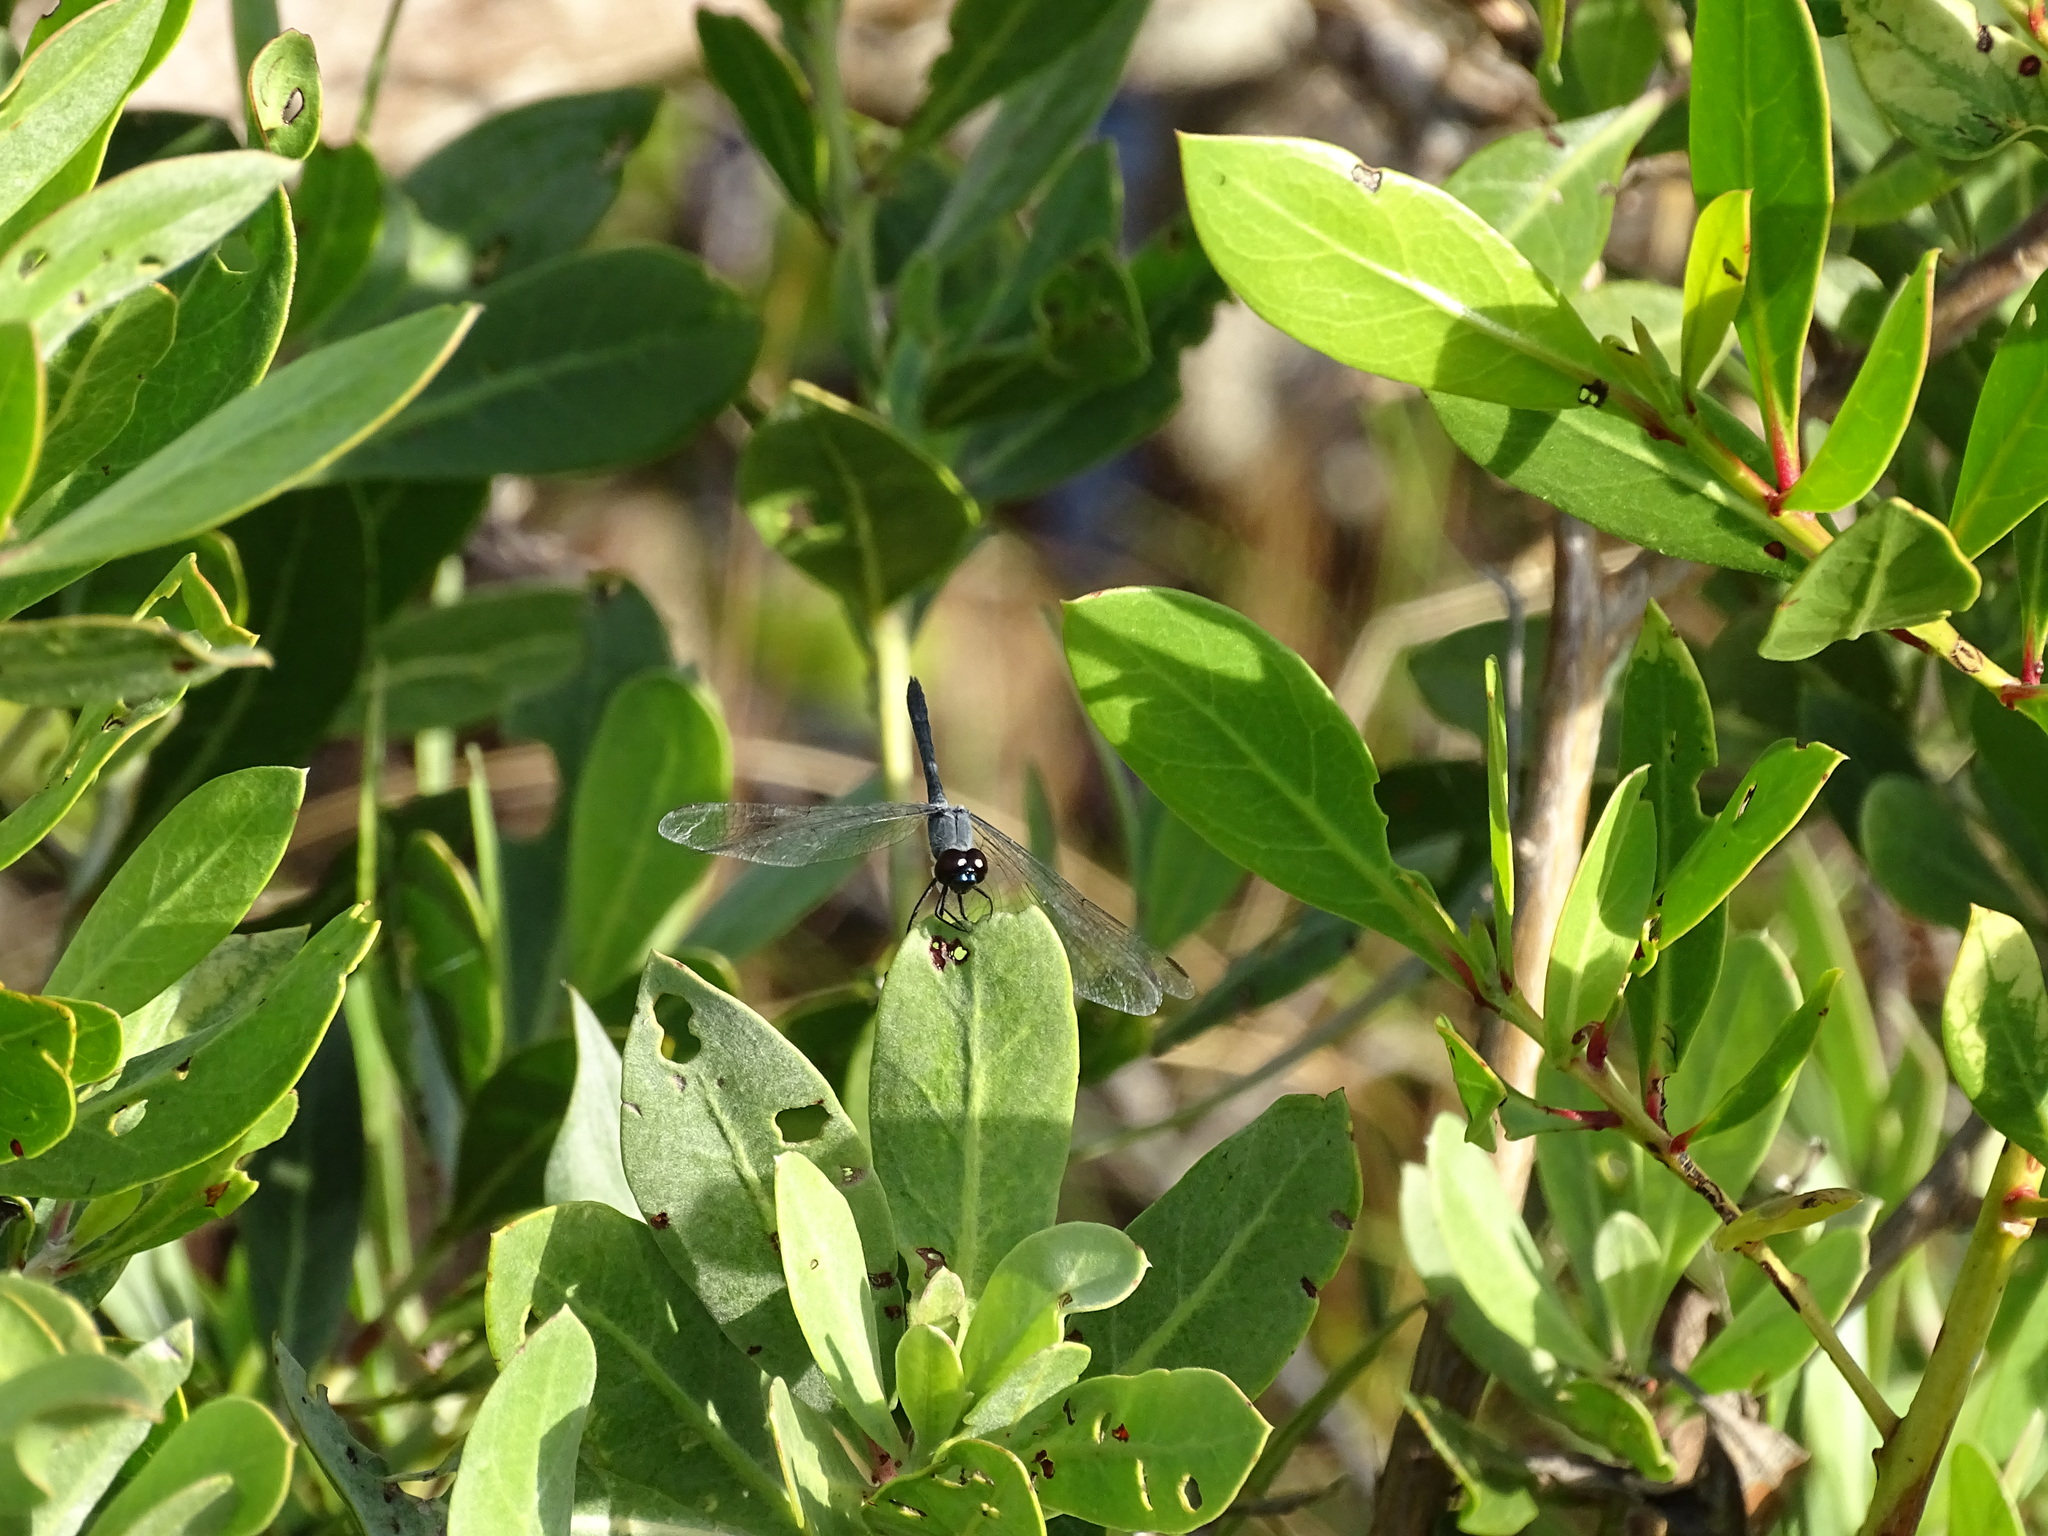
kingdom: Animalia
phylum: Arthropoda
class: Insecta
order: Odonata
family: Libellulidae
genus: Erythrodiplax
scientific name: Erythrodiplax berenice
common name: Seaside dragonlet
